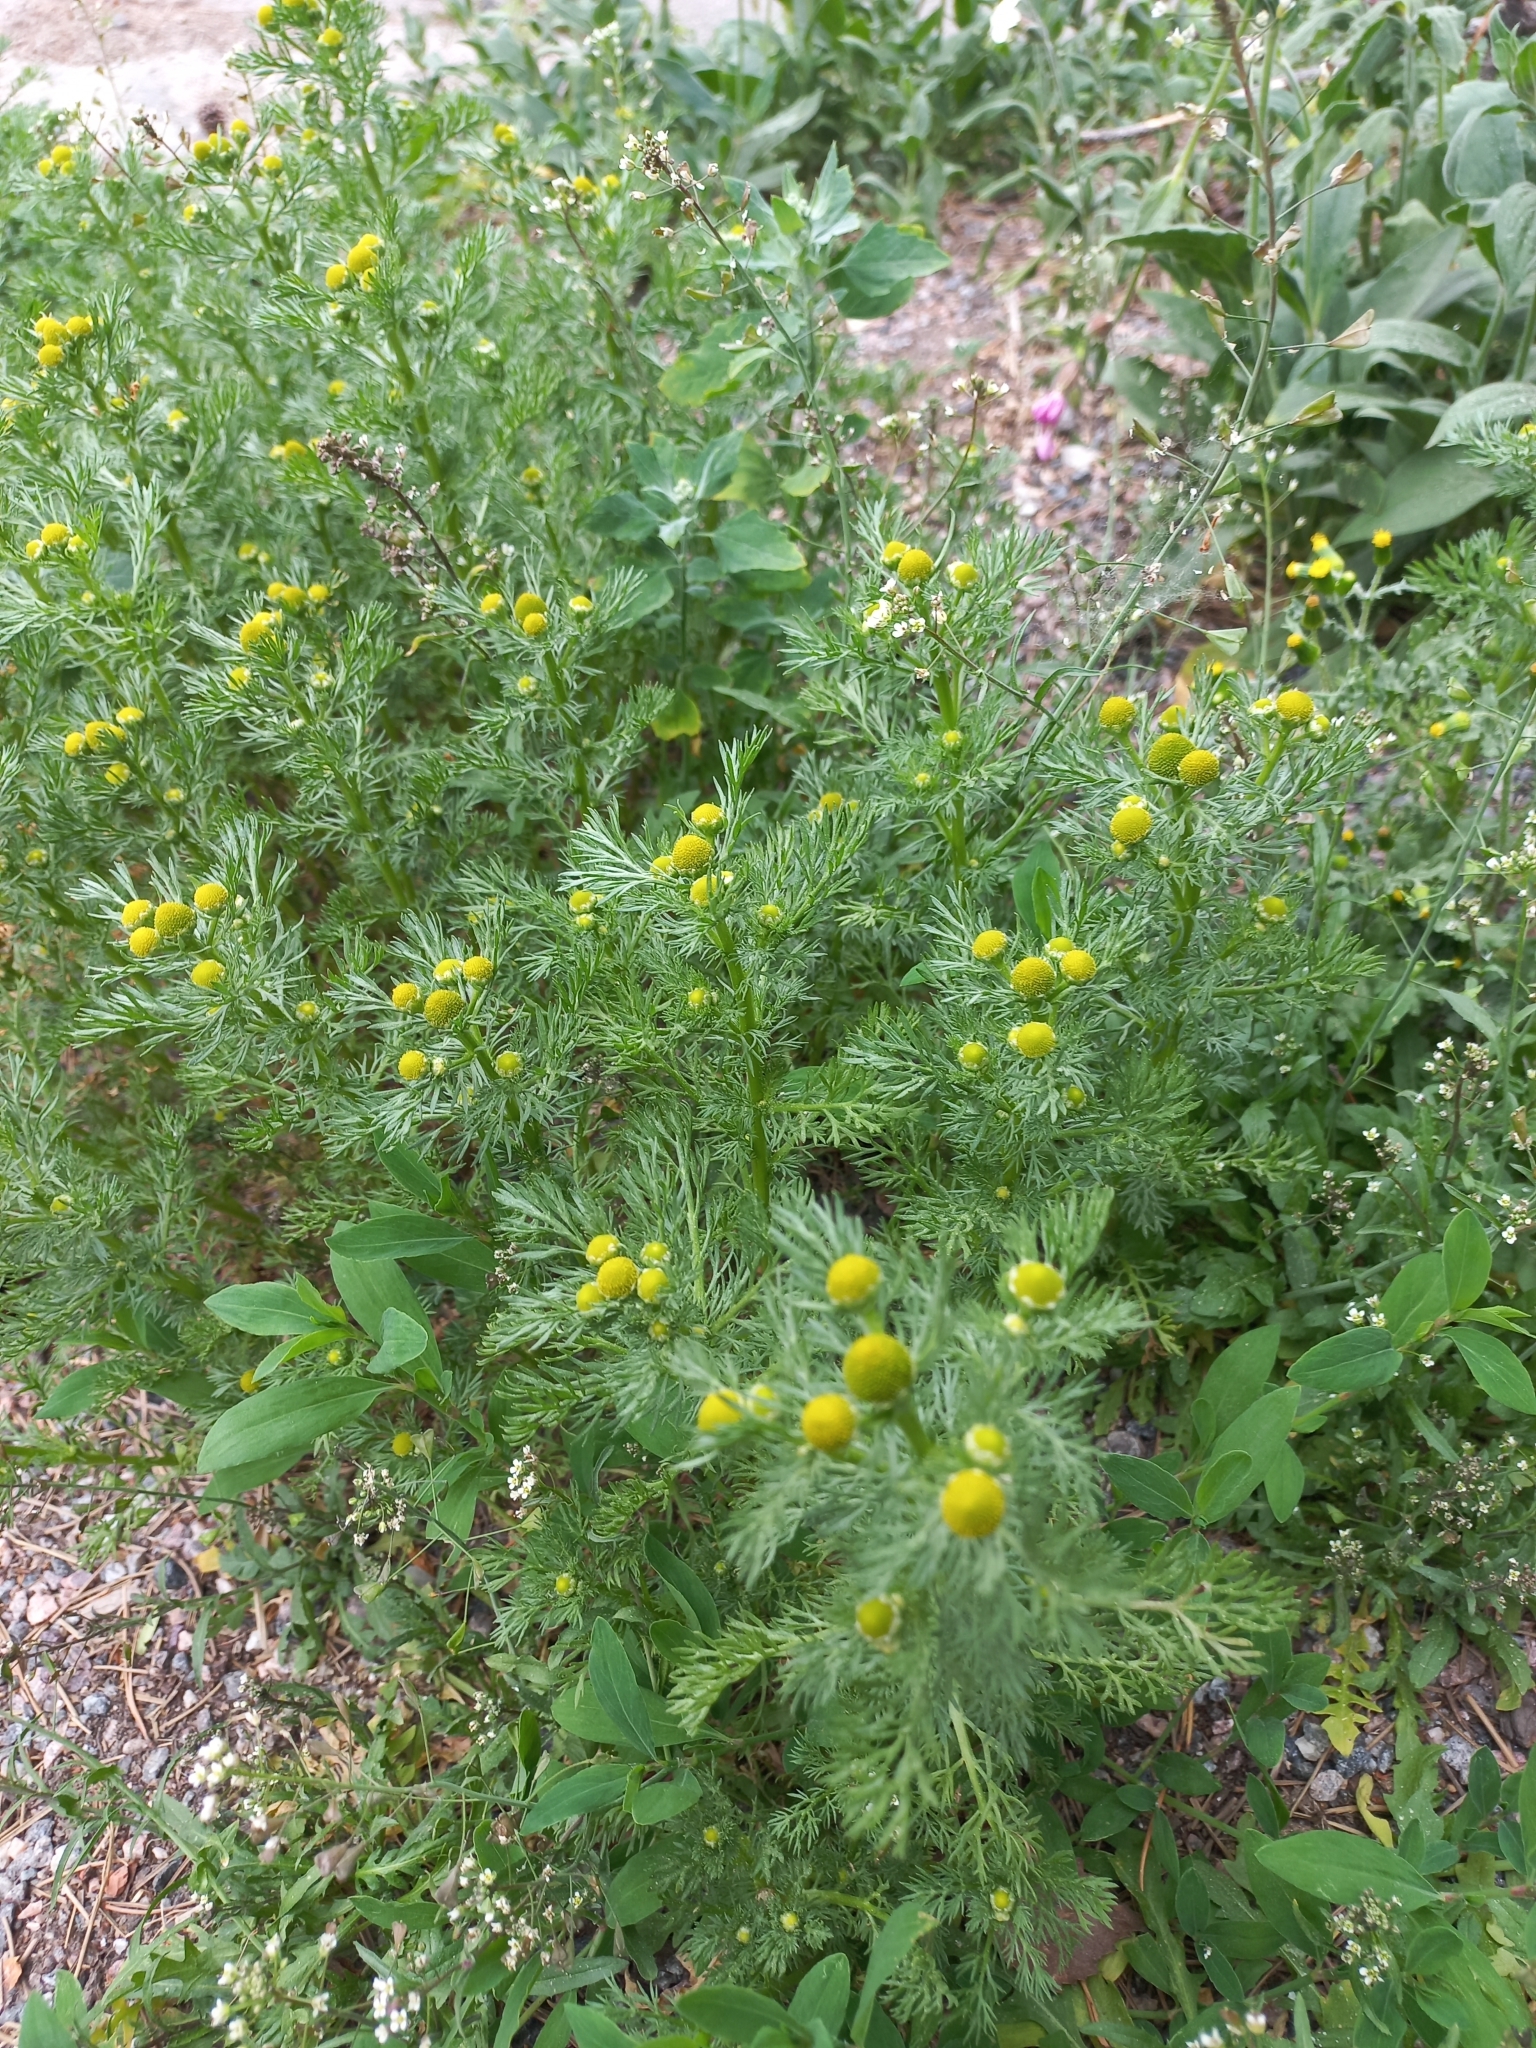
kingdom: Plantae
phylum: Tracheophyta
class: Magnoliopsida
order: Asterales
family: Asteraceae
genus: Matricaria
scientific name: Matricaria discoidea
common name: Disc mayweed
